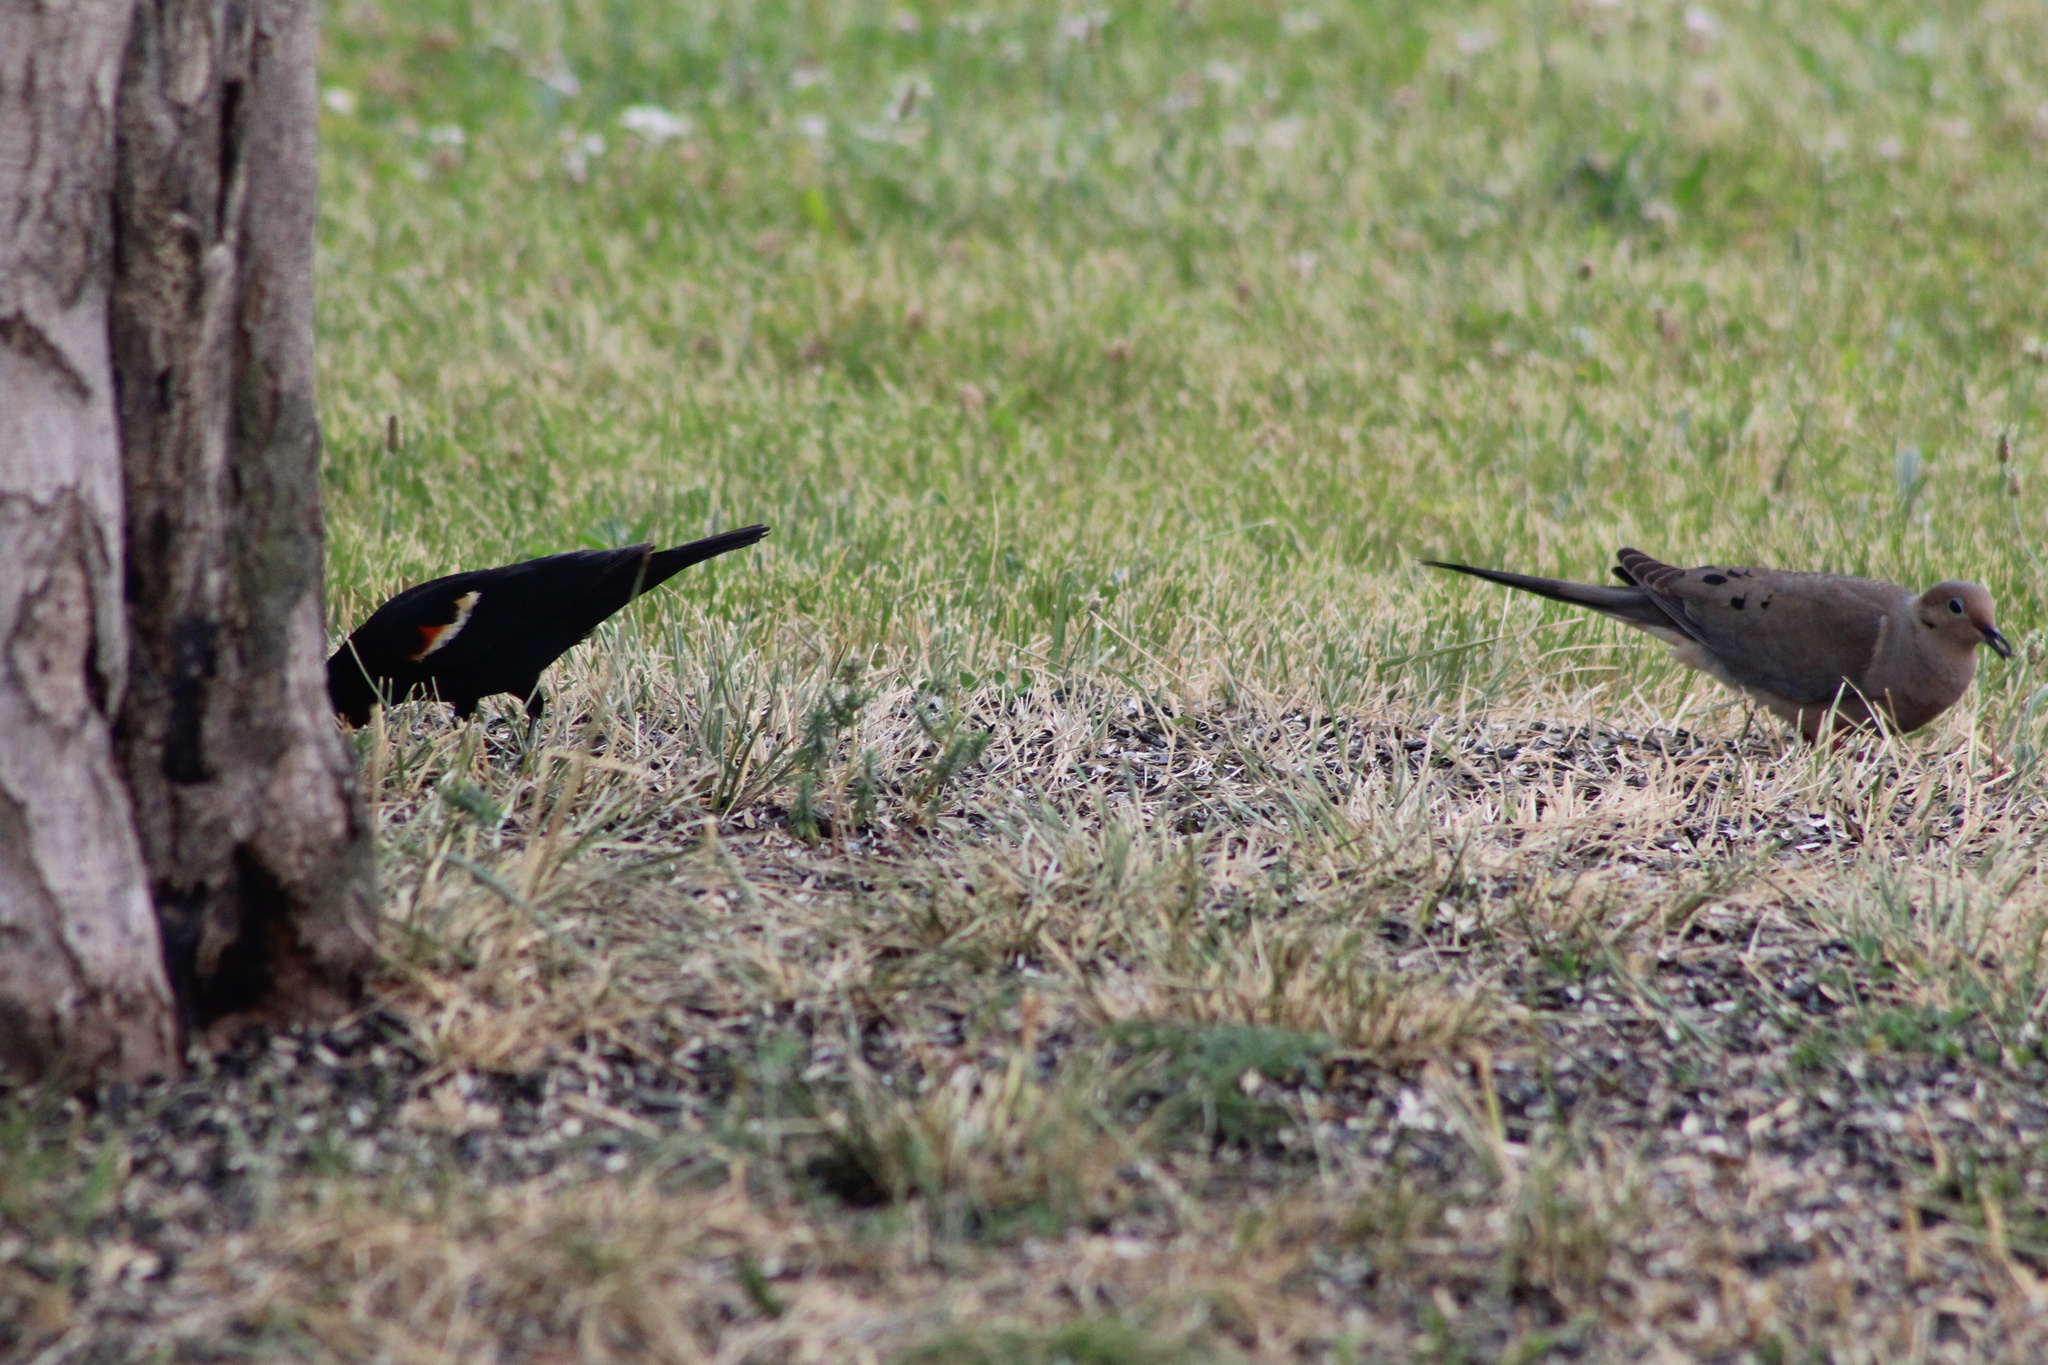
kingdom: Animalia
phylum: Chordata
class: Aves
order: Passeriformes
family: Icteridae
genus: Agelaius
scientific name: Agelaius phoeniceus
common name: Red-winged blackbird
